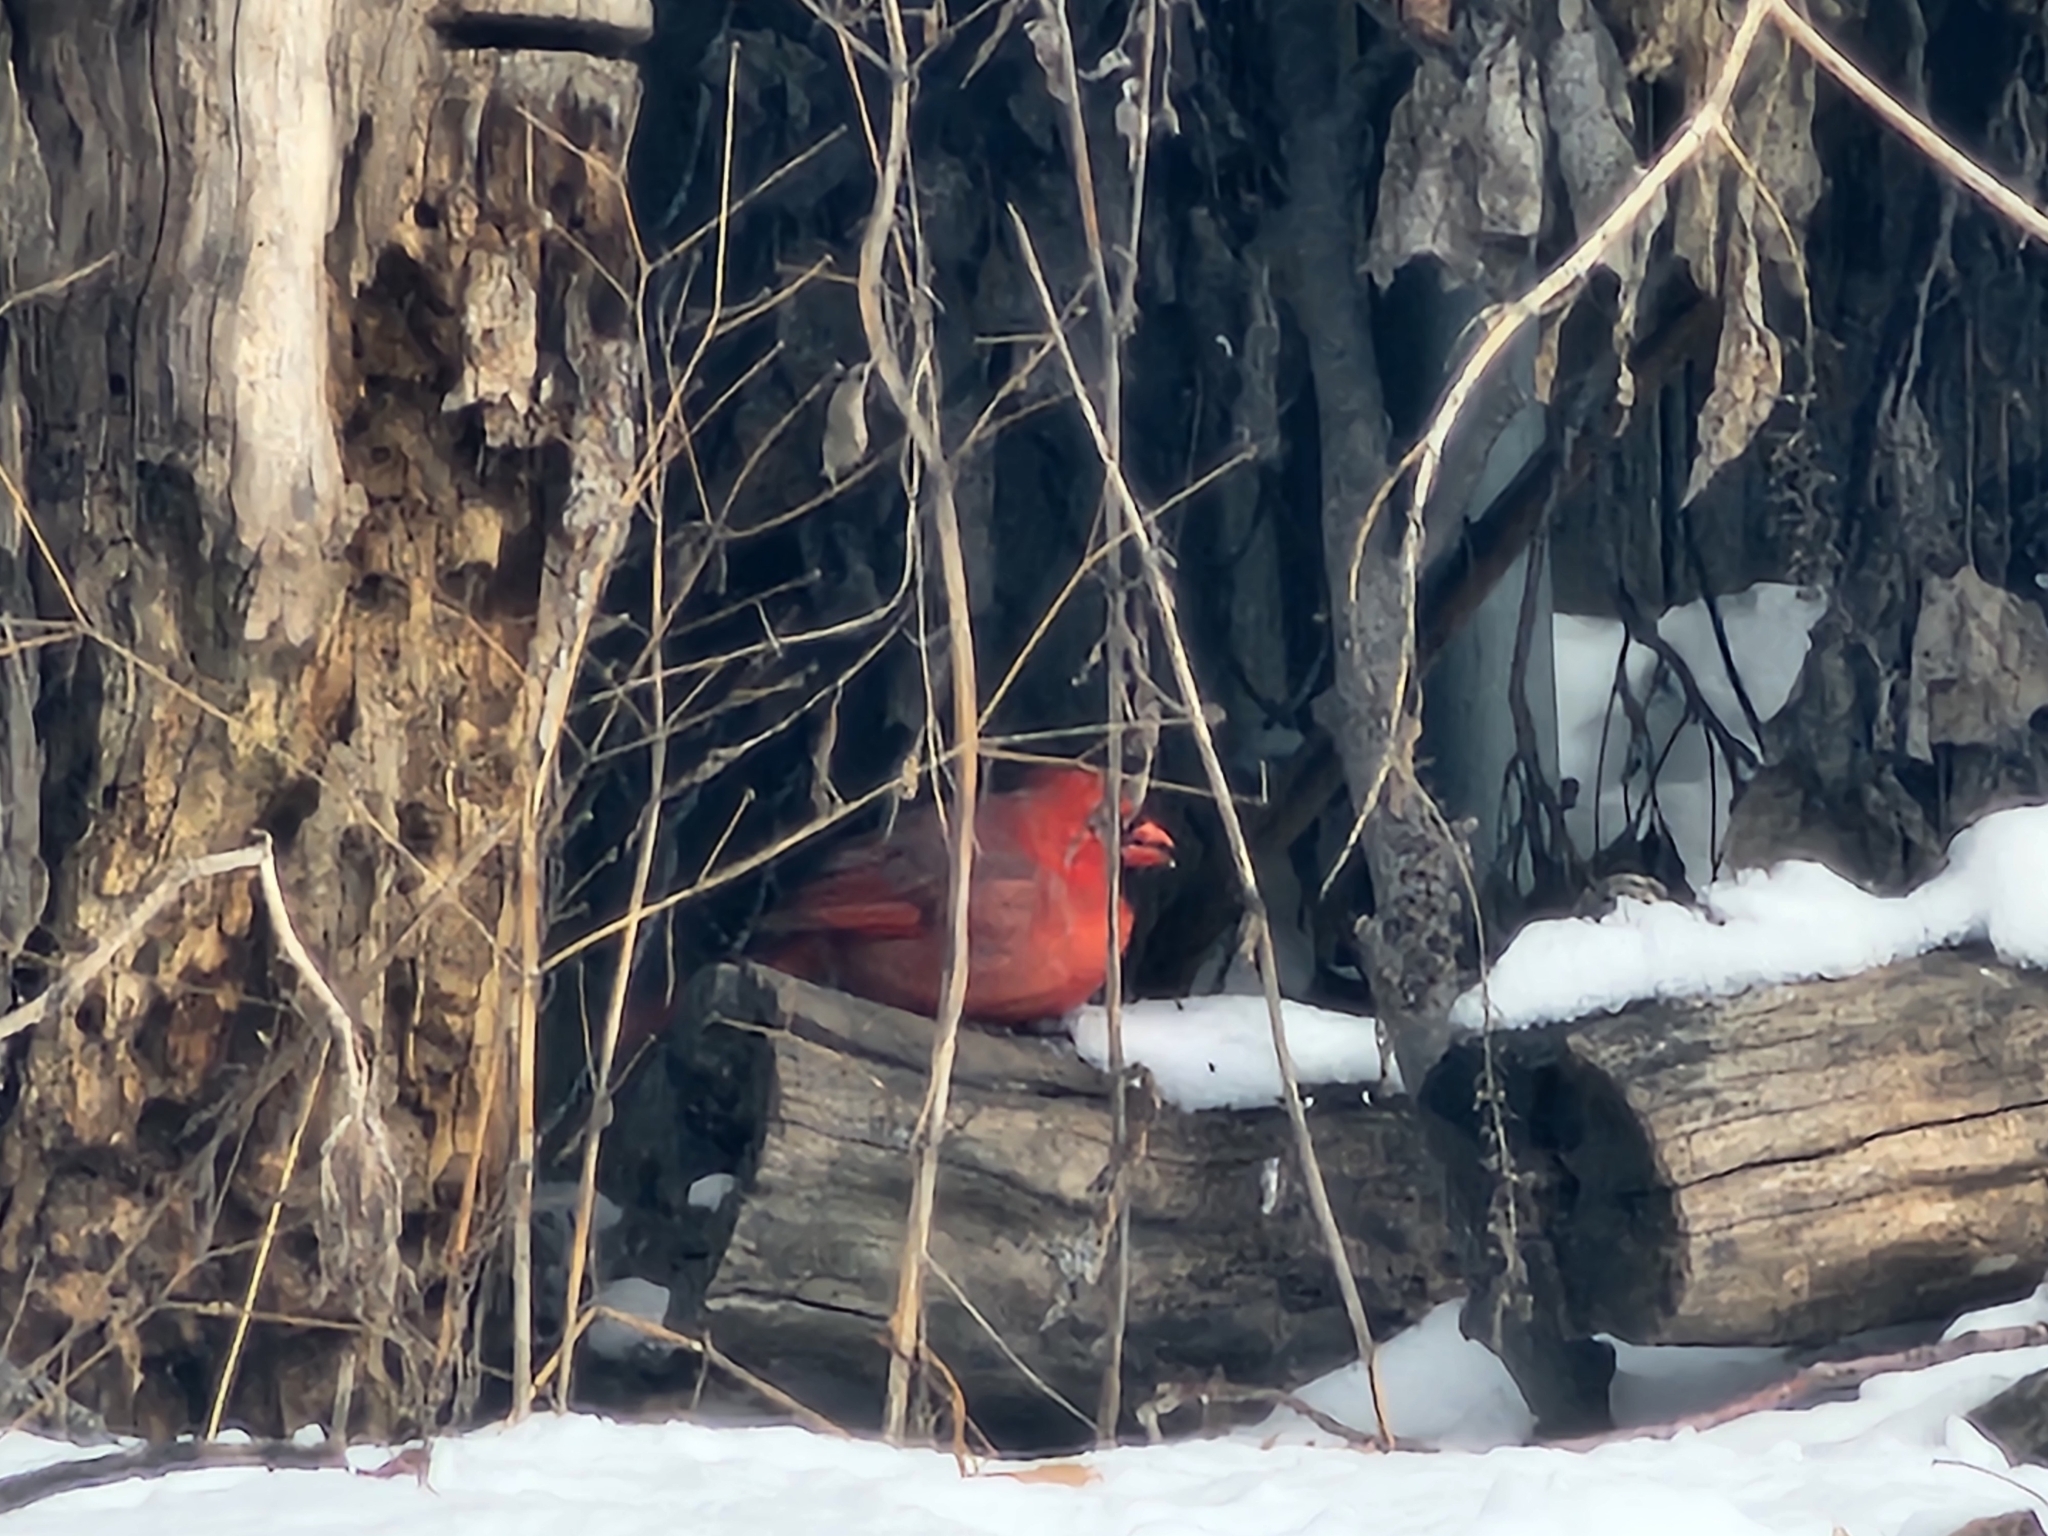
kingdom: Animalia
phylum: Chordata
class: Aves
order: Passeriformes
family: Cardinalidae
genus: Cardinalis
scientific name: Cardinalis cardinalis
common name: Northern cardinal
